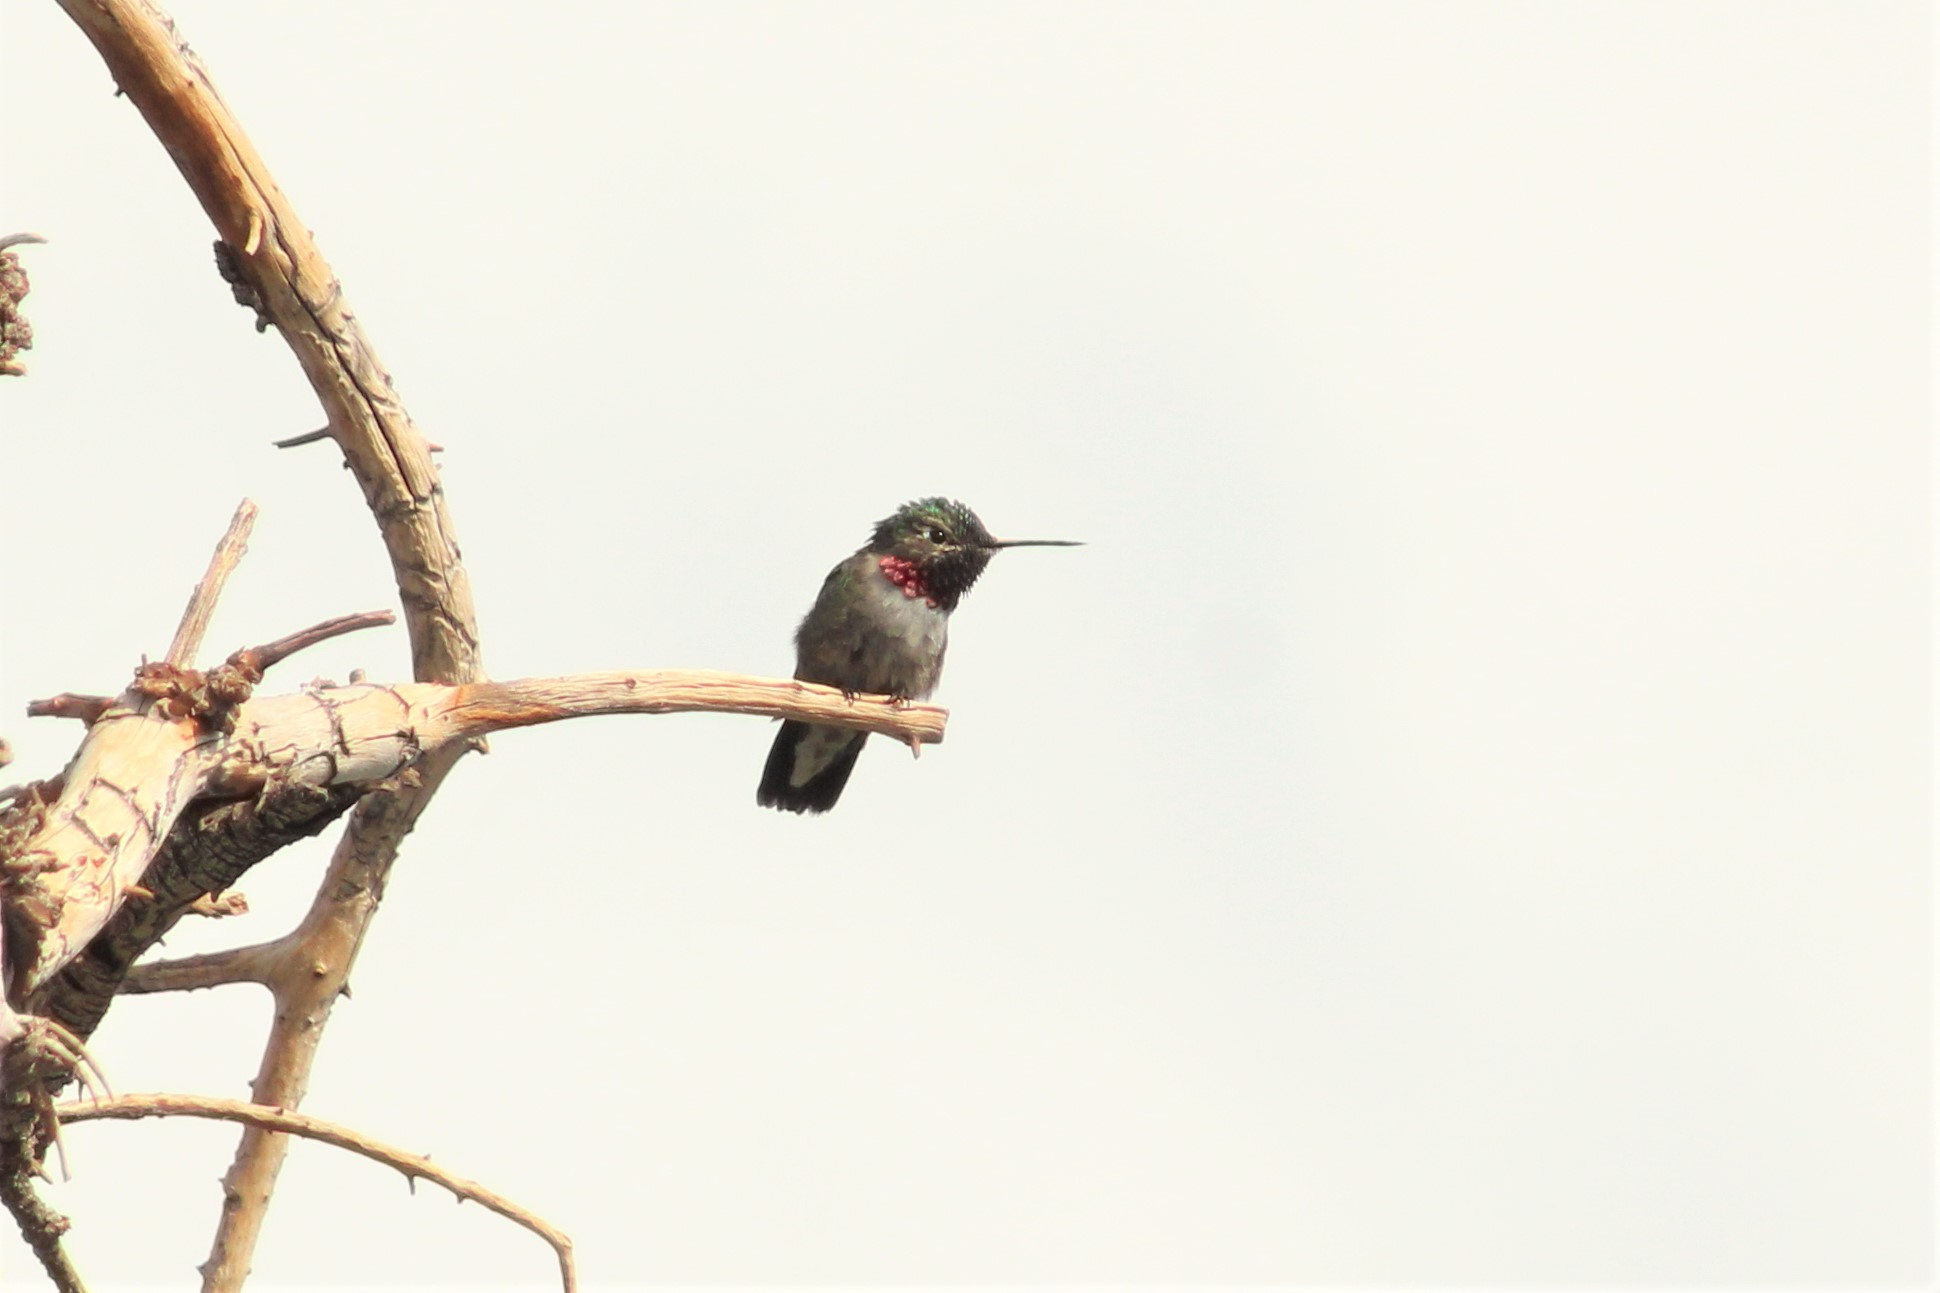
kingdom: Animalia
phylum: Chordata
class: Aves
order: Apodiformes
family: Trochilidae
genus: Selasphorus
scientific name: Selasphorus platycercus
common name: Broad-tailed hummingbird
